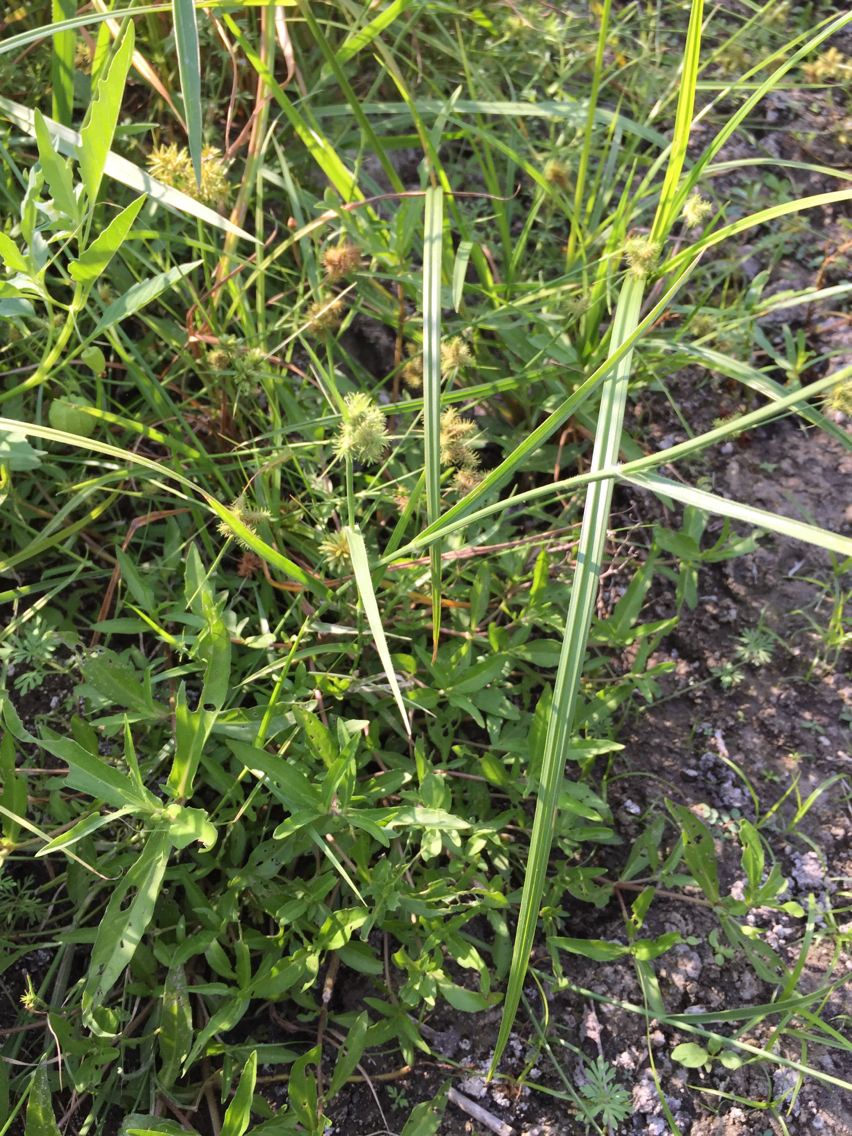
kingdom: Plantae
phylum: Tracheophyta
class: Liliopsida
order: Poales
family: Cyperaceae
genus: Fuirena
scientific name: Fuirena simplex
